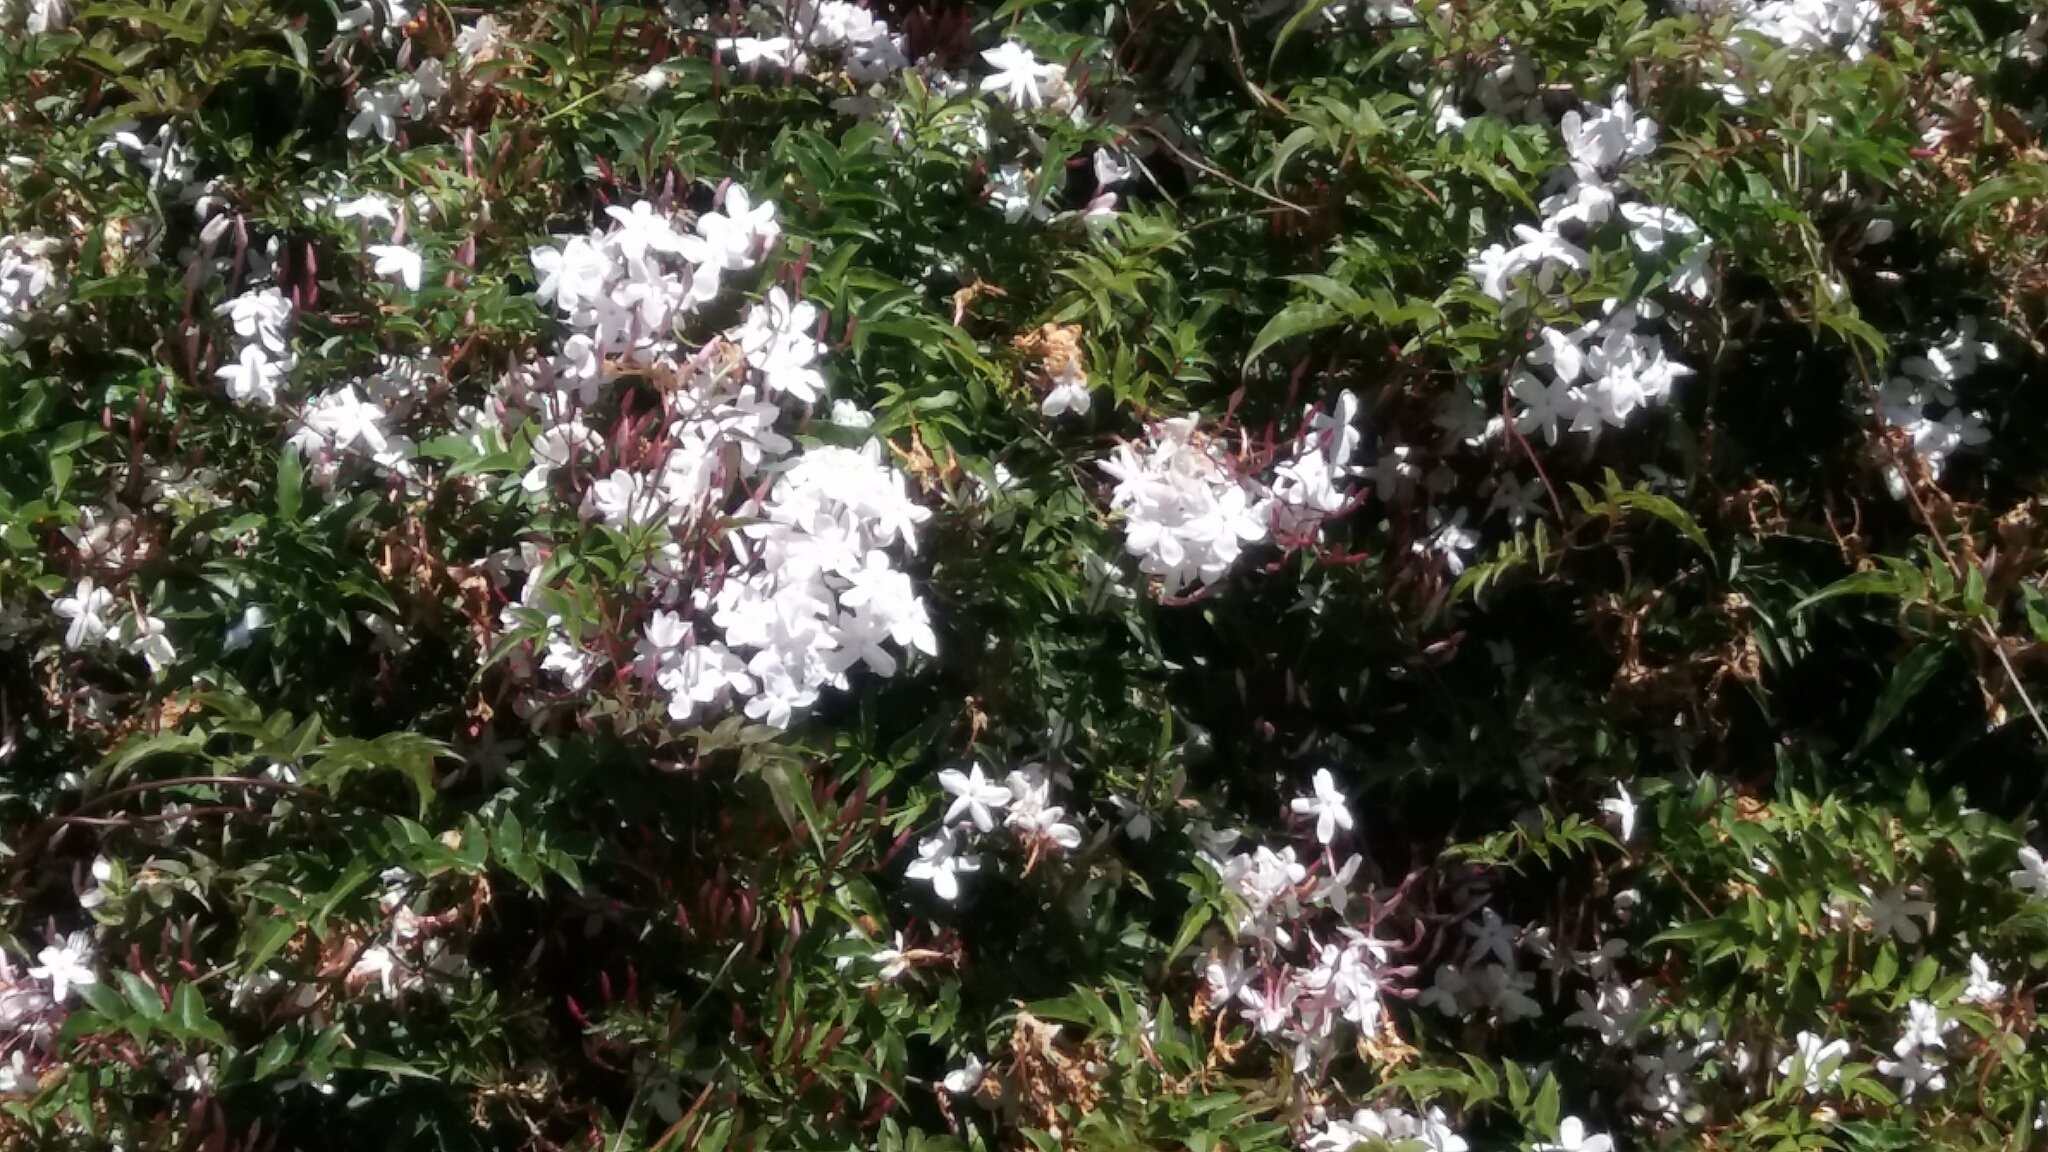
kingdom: Plantae
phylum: Tracheophyta
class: Magnoliopsida
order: Lamiales
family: Oleaceae
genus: Jasminum
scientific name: Jasminum polyanthum
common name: Pink jasmine
